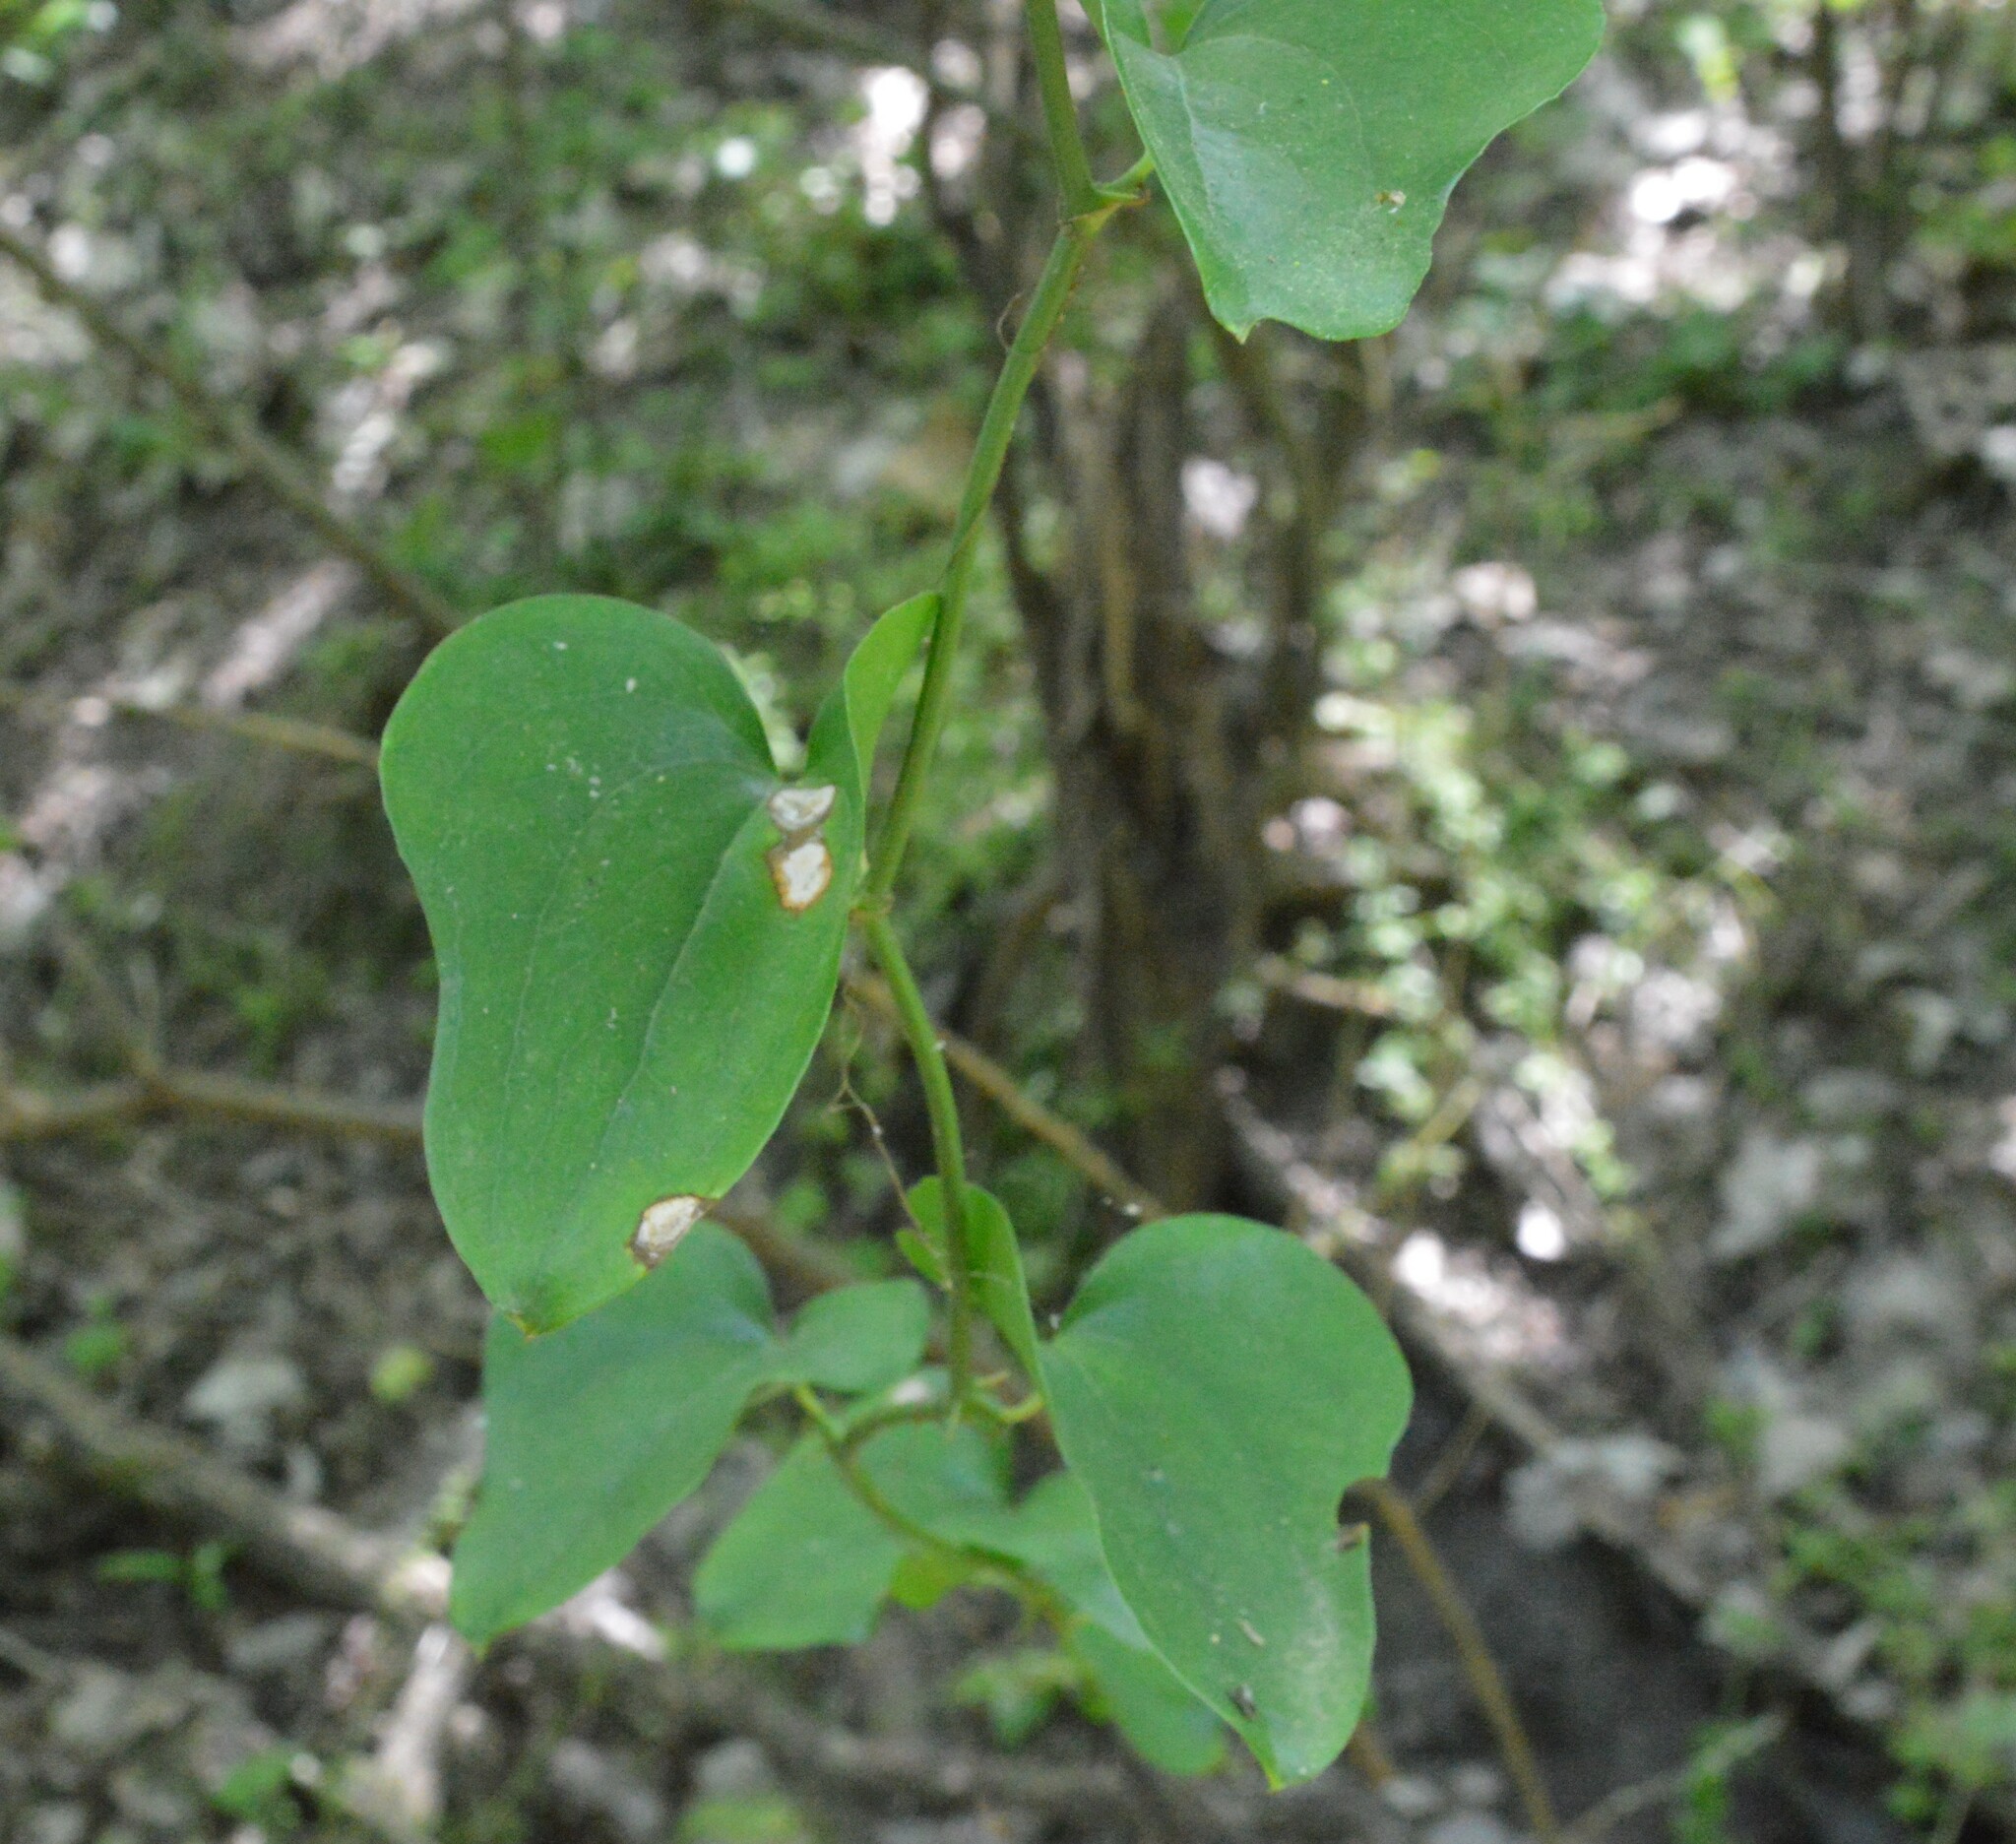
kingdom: Plantae
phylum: Tracheophyta
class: Liliopsida
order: Liliales
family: Smilacaceae
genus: Smilax
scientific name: Smilax bona-nox
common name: Catbrier
